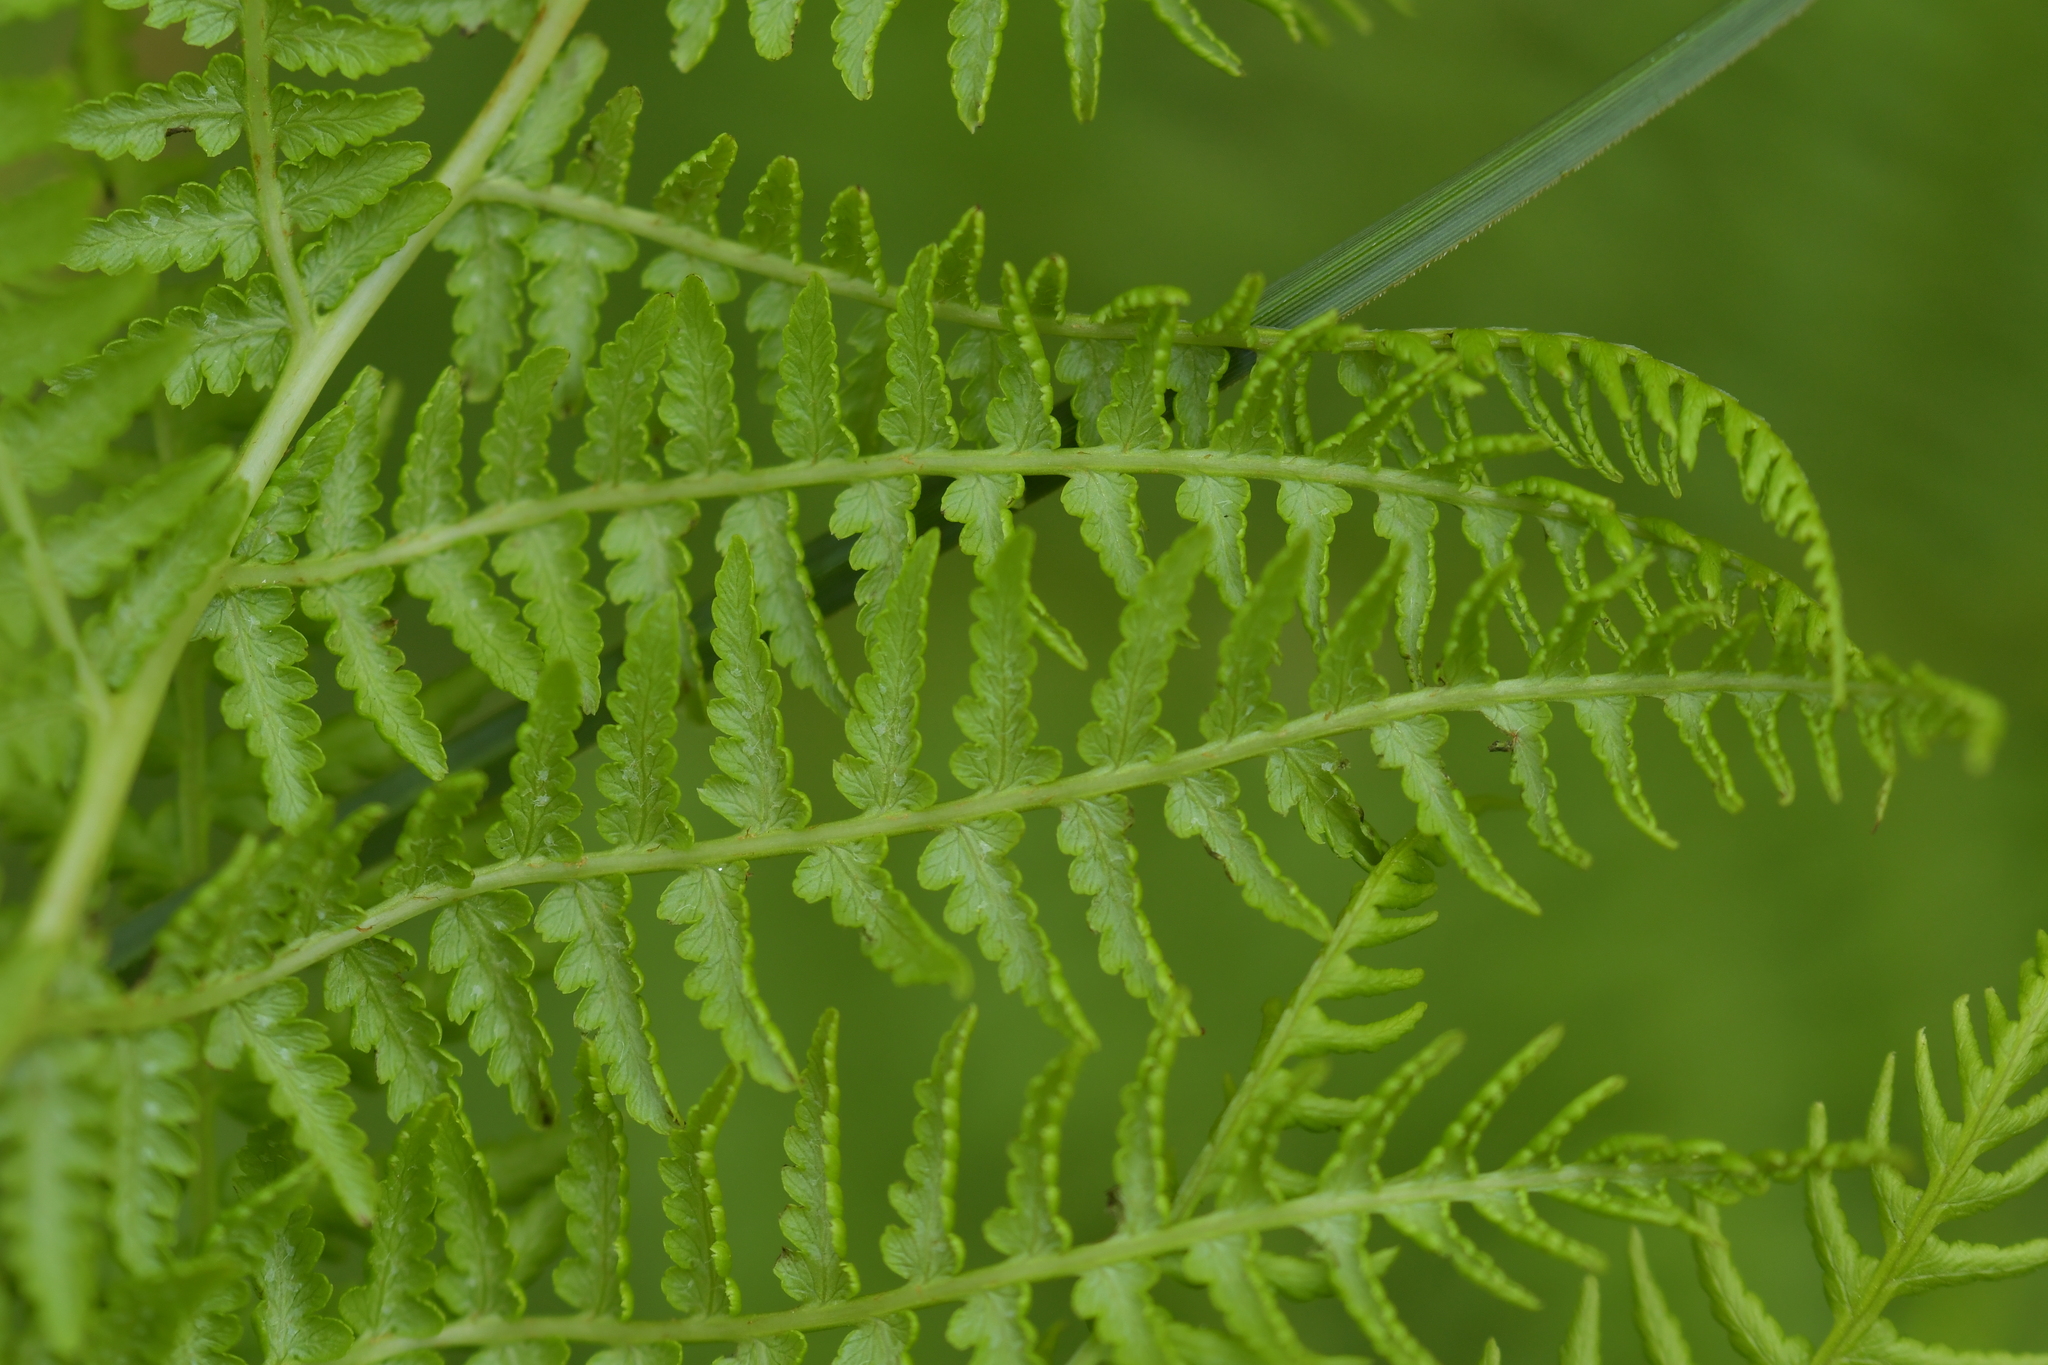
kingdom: Plantae
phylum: Tracheophyta
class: Polypodiopsida
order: Polypodiales
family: Athyriaceae
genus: Athyrium
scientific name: Athyrium filix-femina
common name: Lady fern
